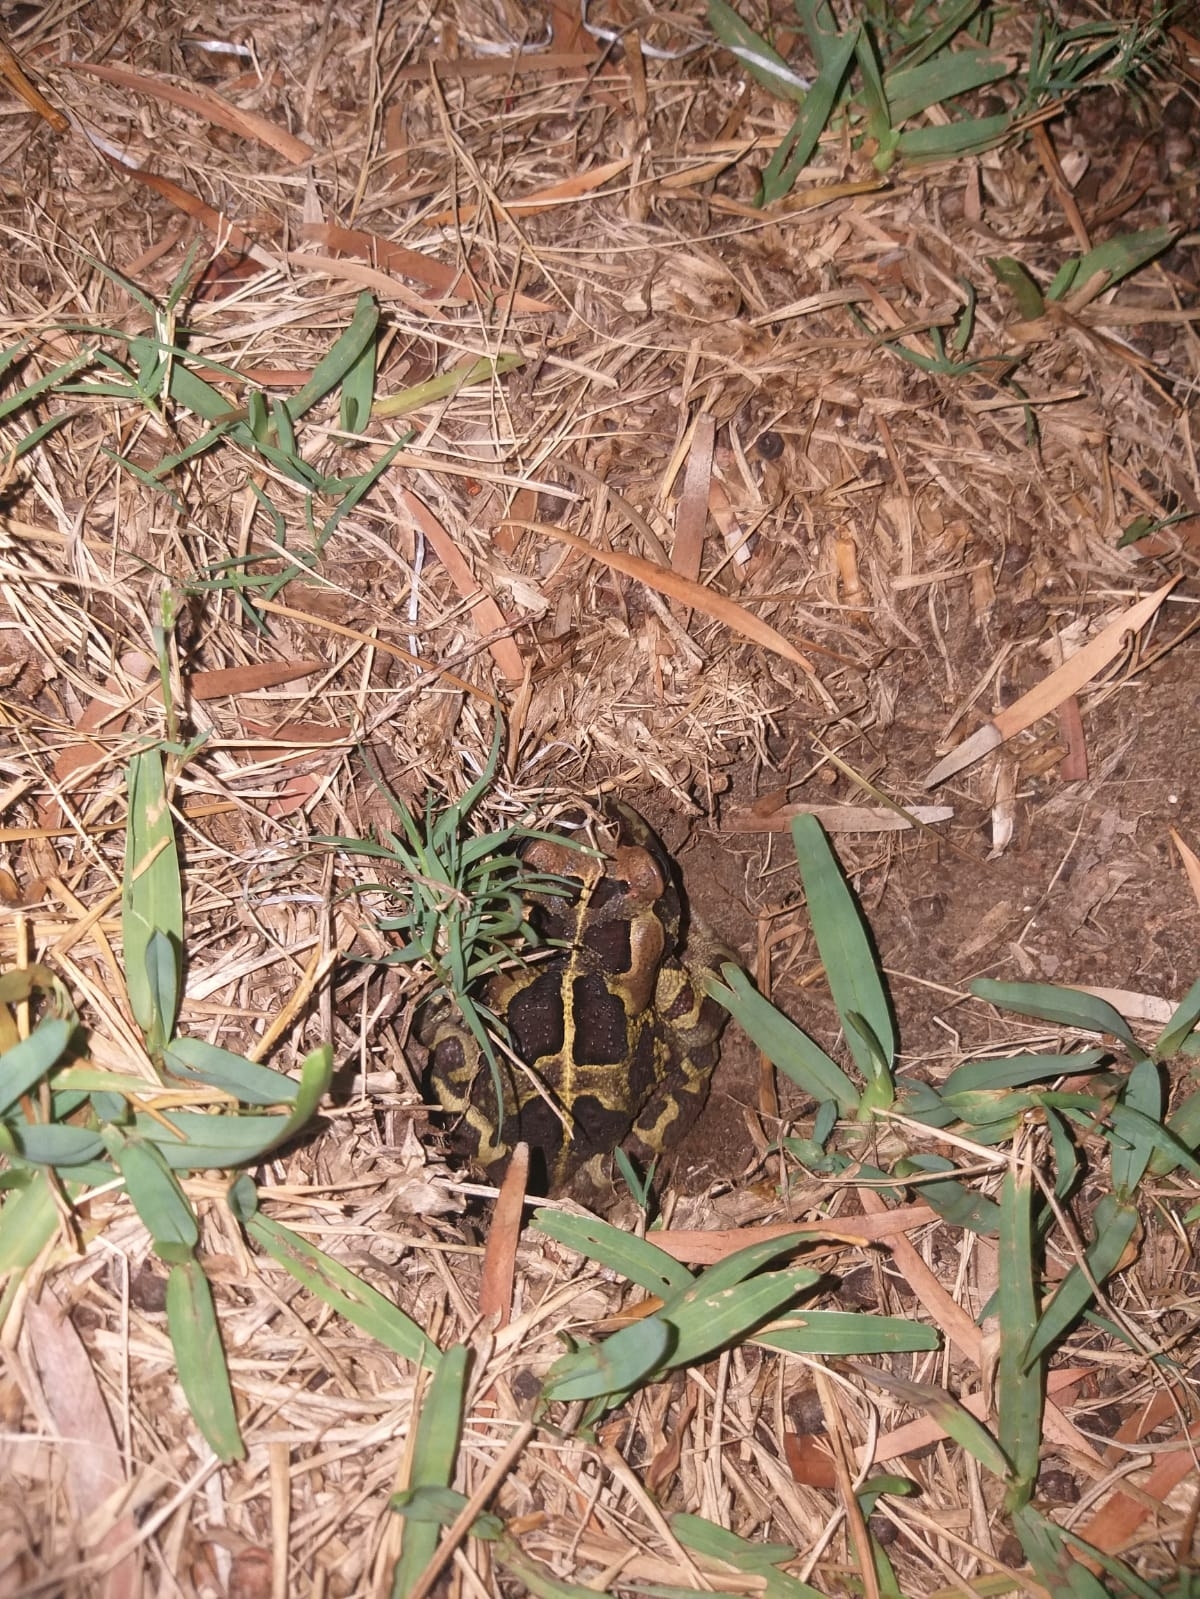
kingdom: Animalia
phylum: Chordata
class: Amphibia
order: Anura
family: Bufonidae
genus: Sclerophrys
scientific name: Sclerophrys pantherina
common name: Panther toad
